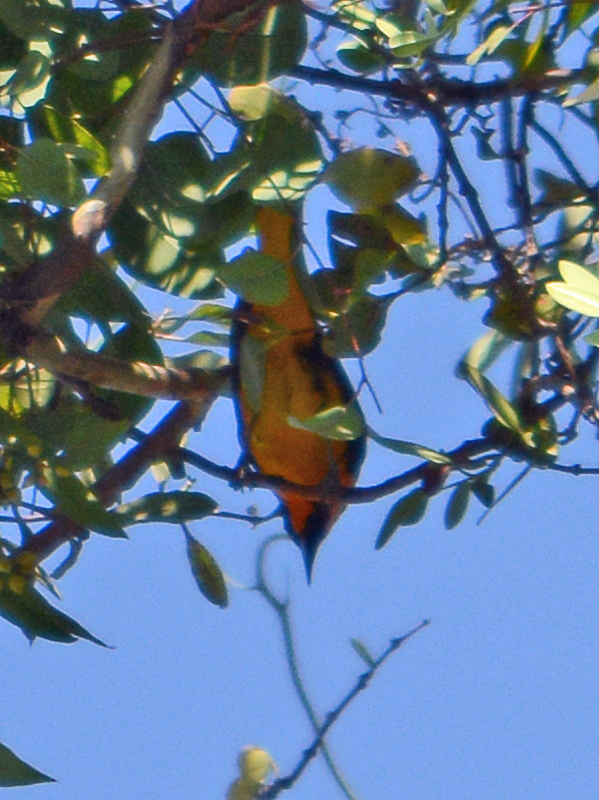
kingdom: Animalia
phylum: Chordata
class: Aves
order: Passeriformes
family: Icteridae
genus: Icterus
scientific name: Icterus abeillei
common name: Black-backed oriole
